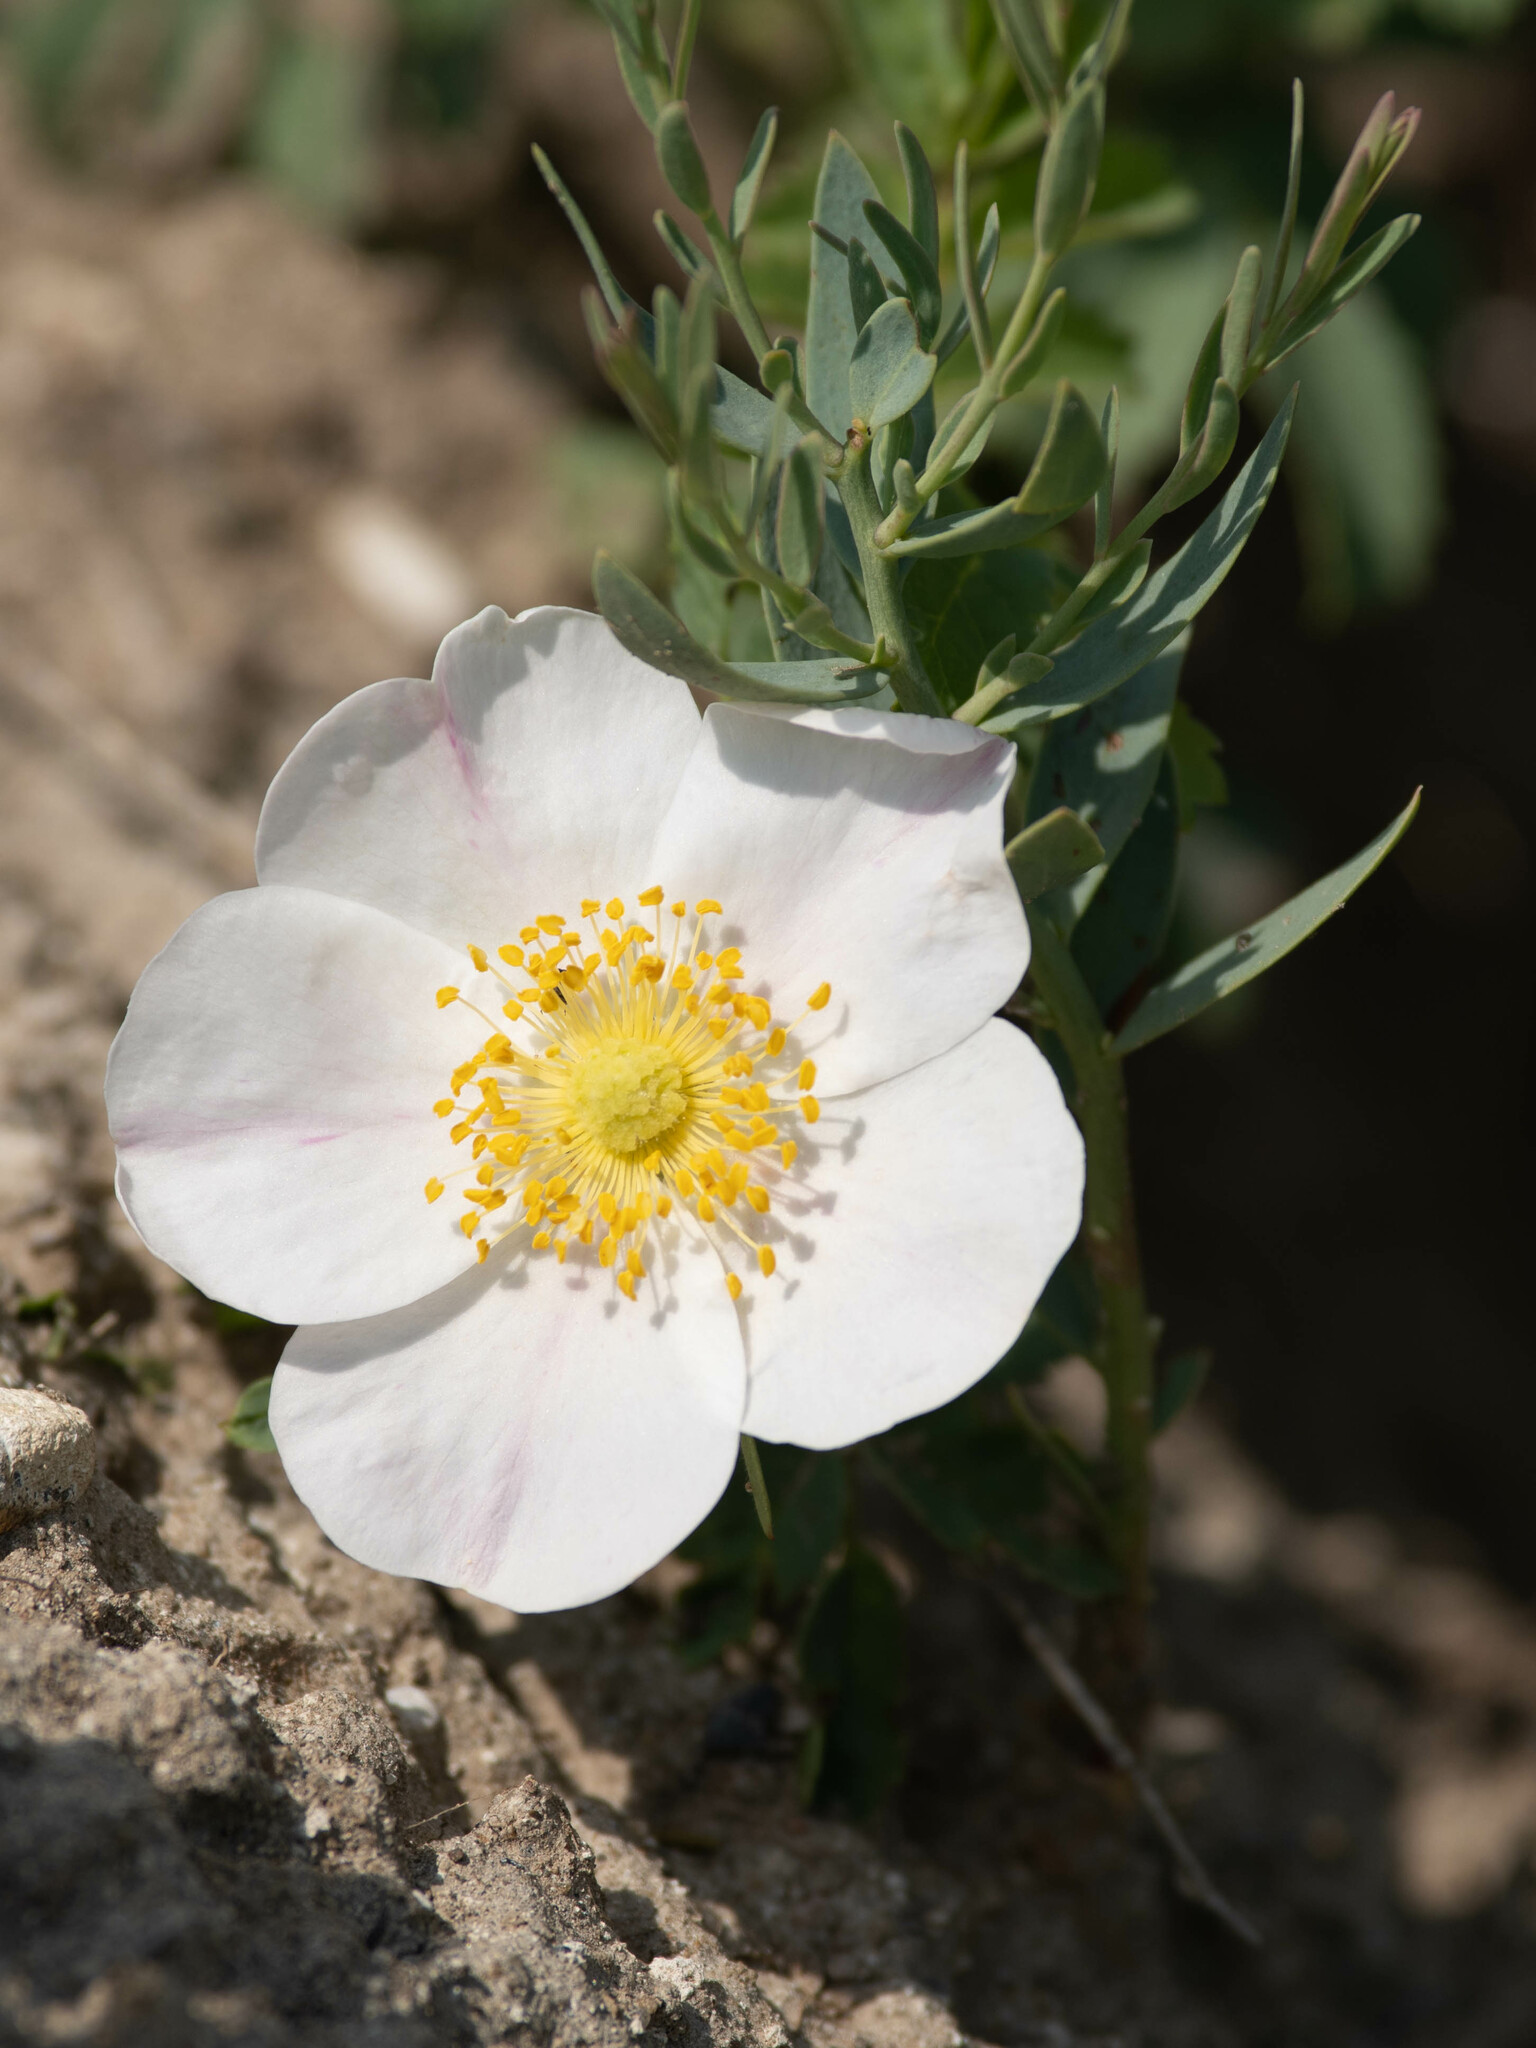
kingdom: Plantae
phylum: Tracheophyta
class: Magnoliopsida
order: Rosales
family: Rosaceae
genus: Rosa
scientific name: Rosa arkansana
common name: Prairie rose
